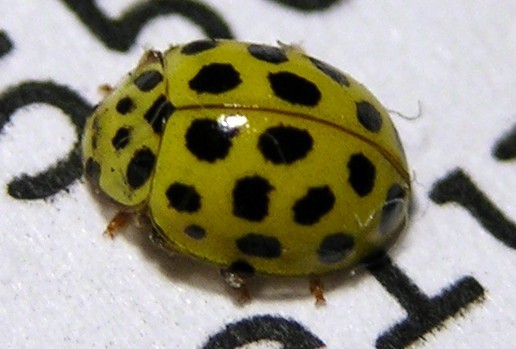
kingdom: Animalia
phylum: Arthropoda
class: Insecta
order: Coleoptera
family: Coccinellidae
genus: Psyllobora
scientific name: Psyllobora vigintiduopunctata
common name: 22-spot ladybird
